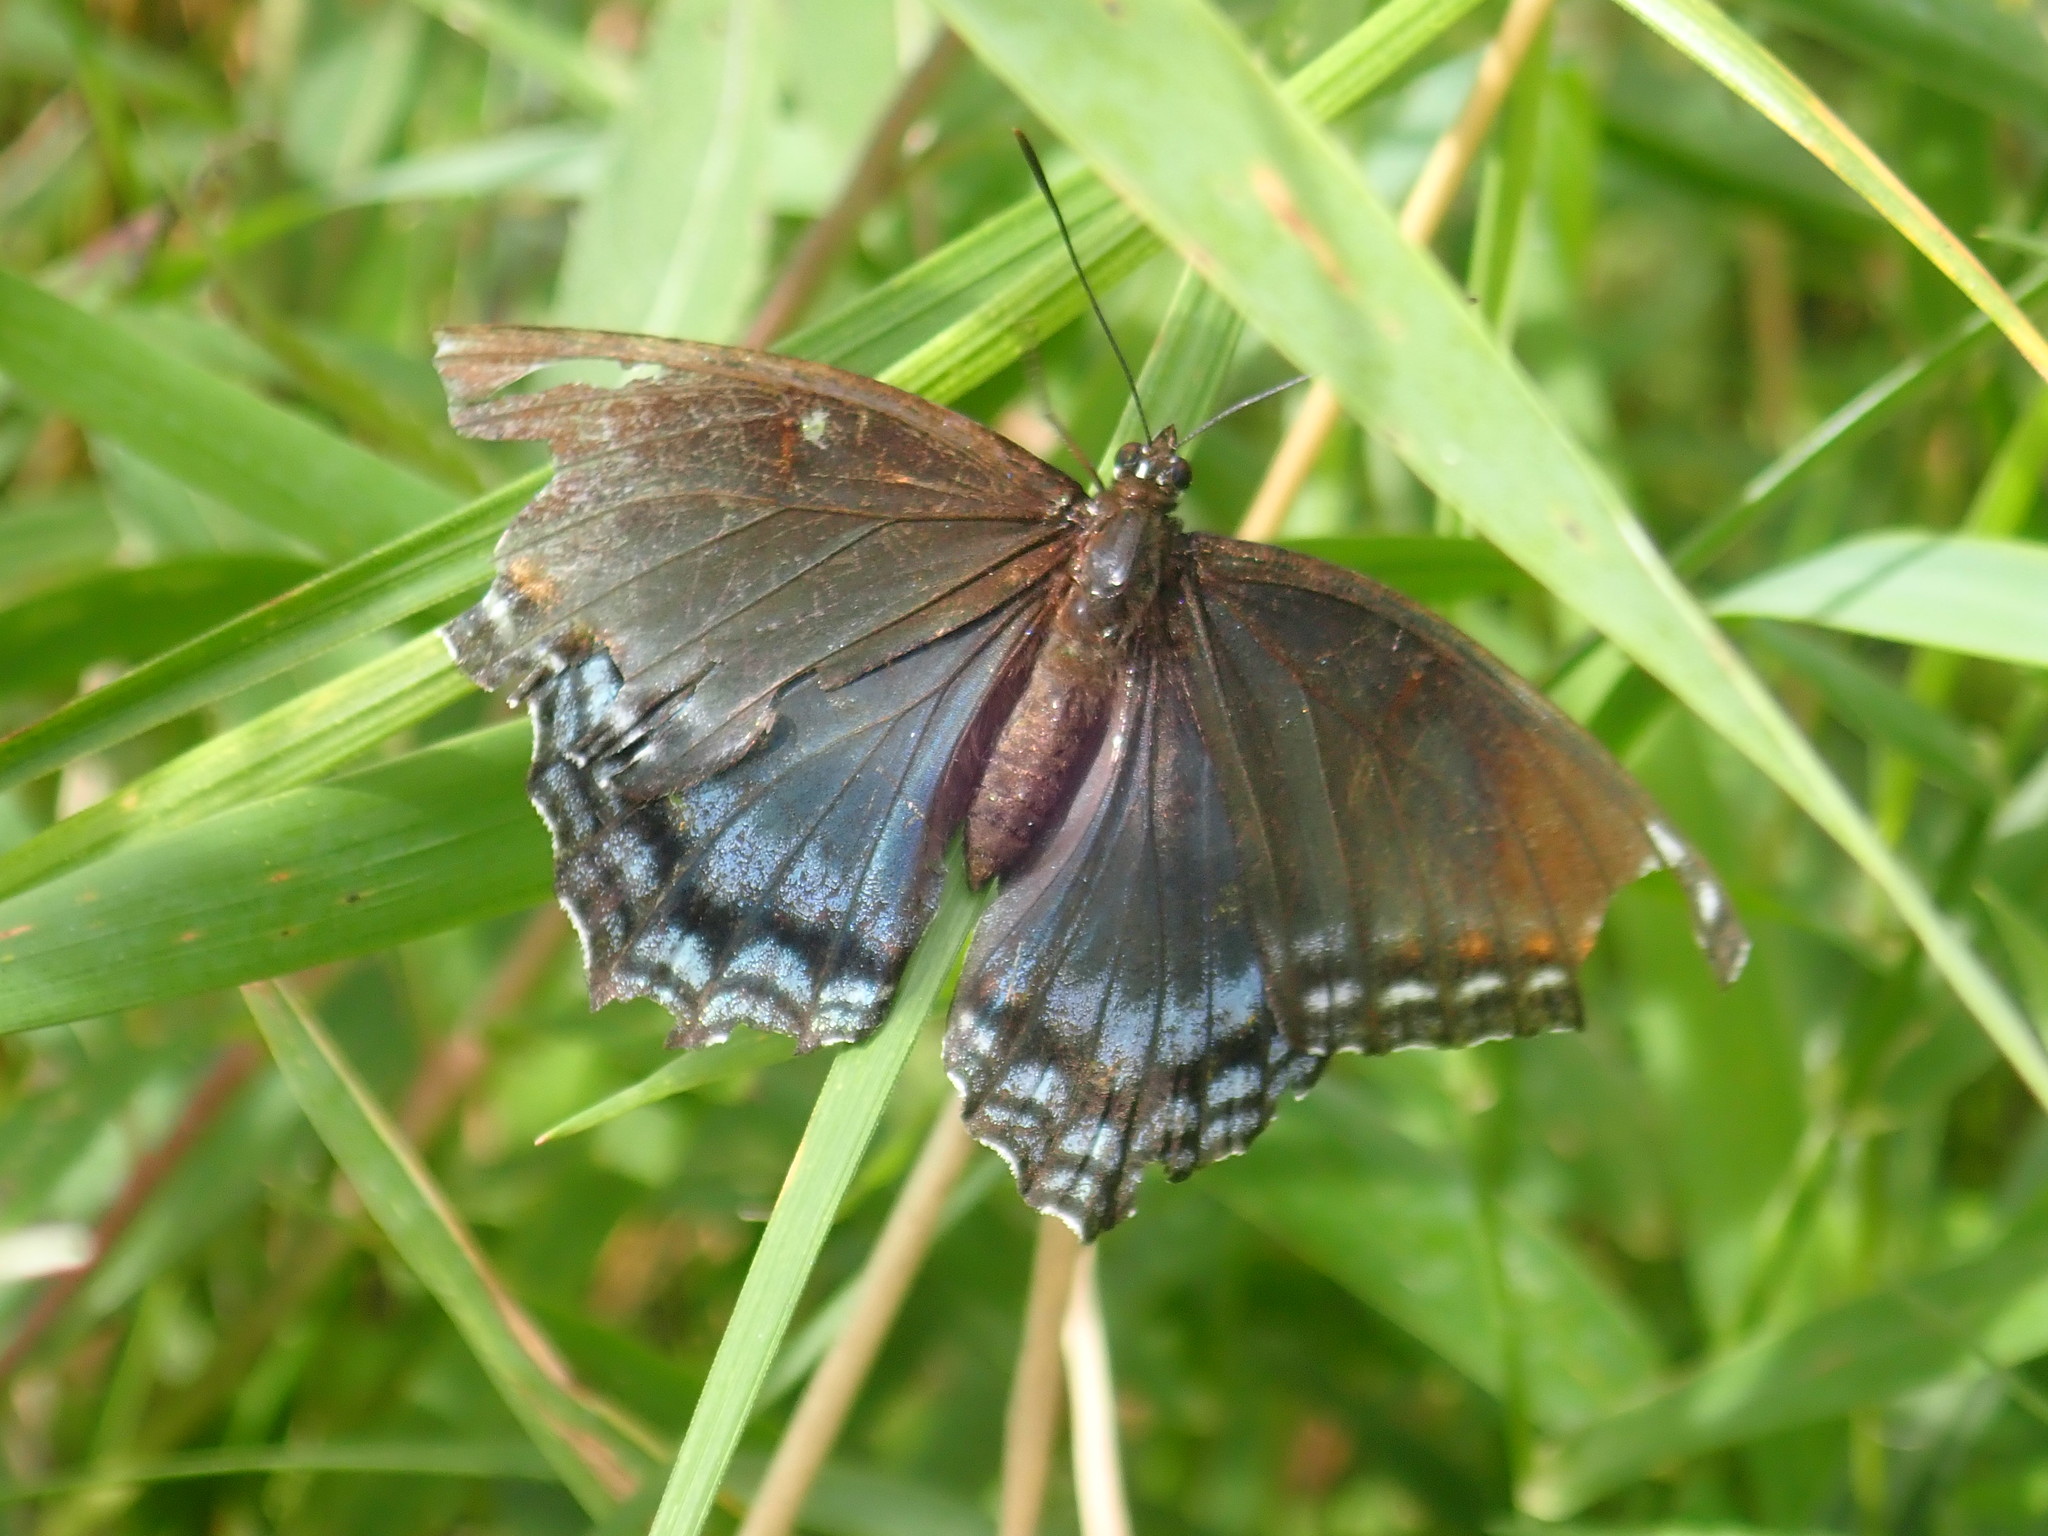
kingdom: Animalia
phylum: Arthropoda
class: Insecta
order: Lepidoptera
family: Nymphalidae
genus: Limenitis
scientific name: Limenitis astyanax
